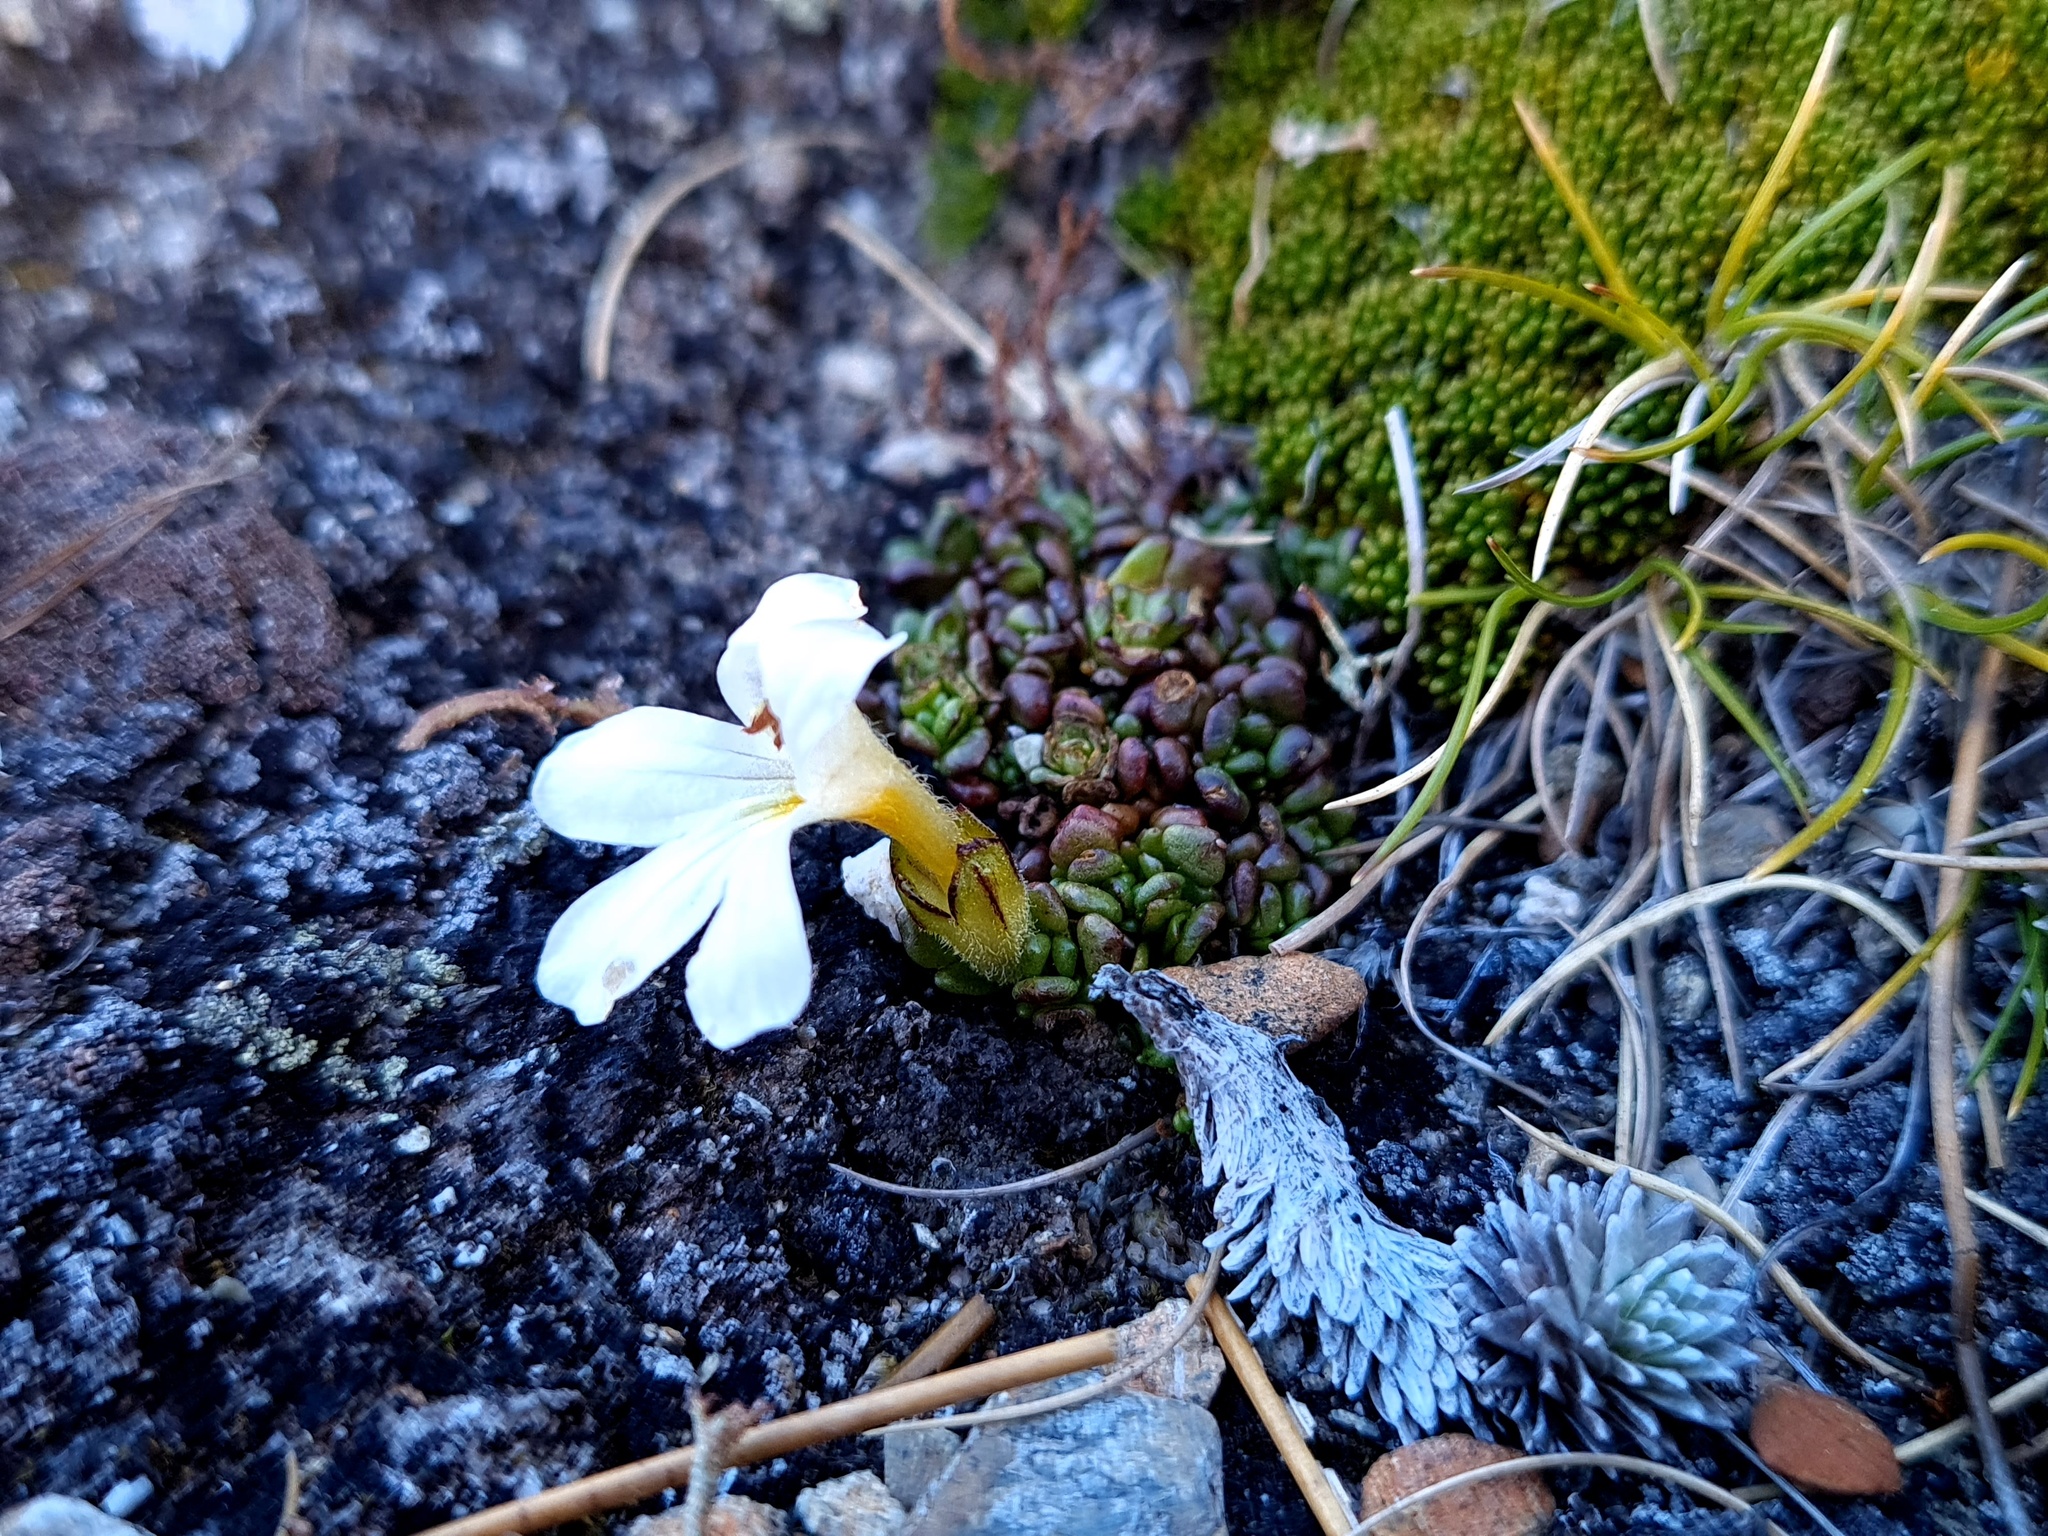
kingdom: Plantae
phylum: Tracheophyta
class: Magnoliopsida
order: Lamiales
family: Orobanchaceae
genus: Euphrasia
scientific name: Euphrasia revoluta
